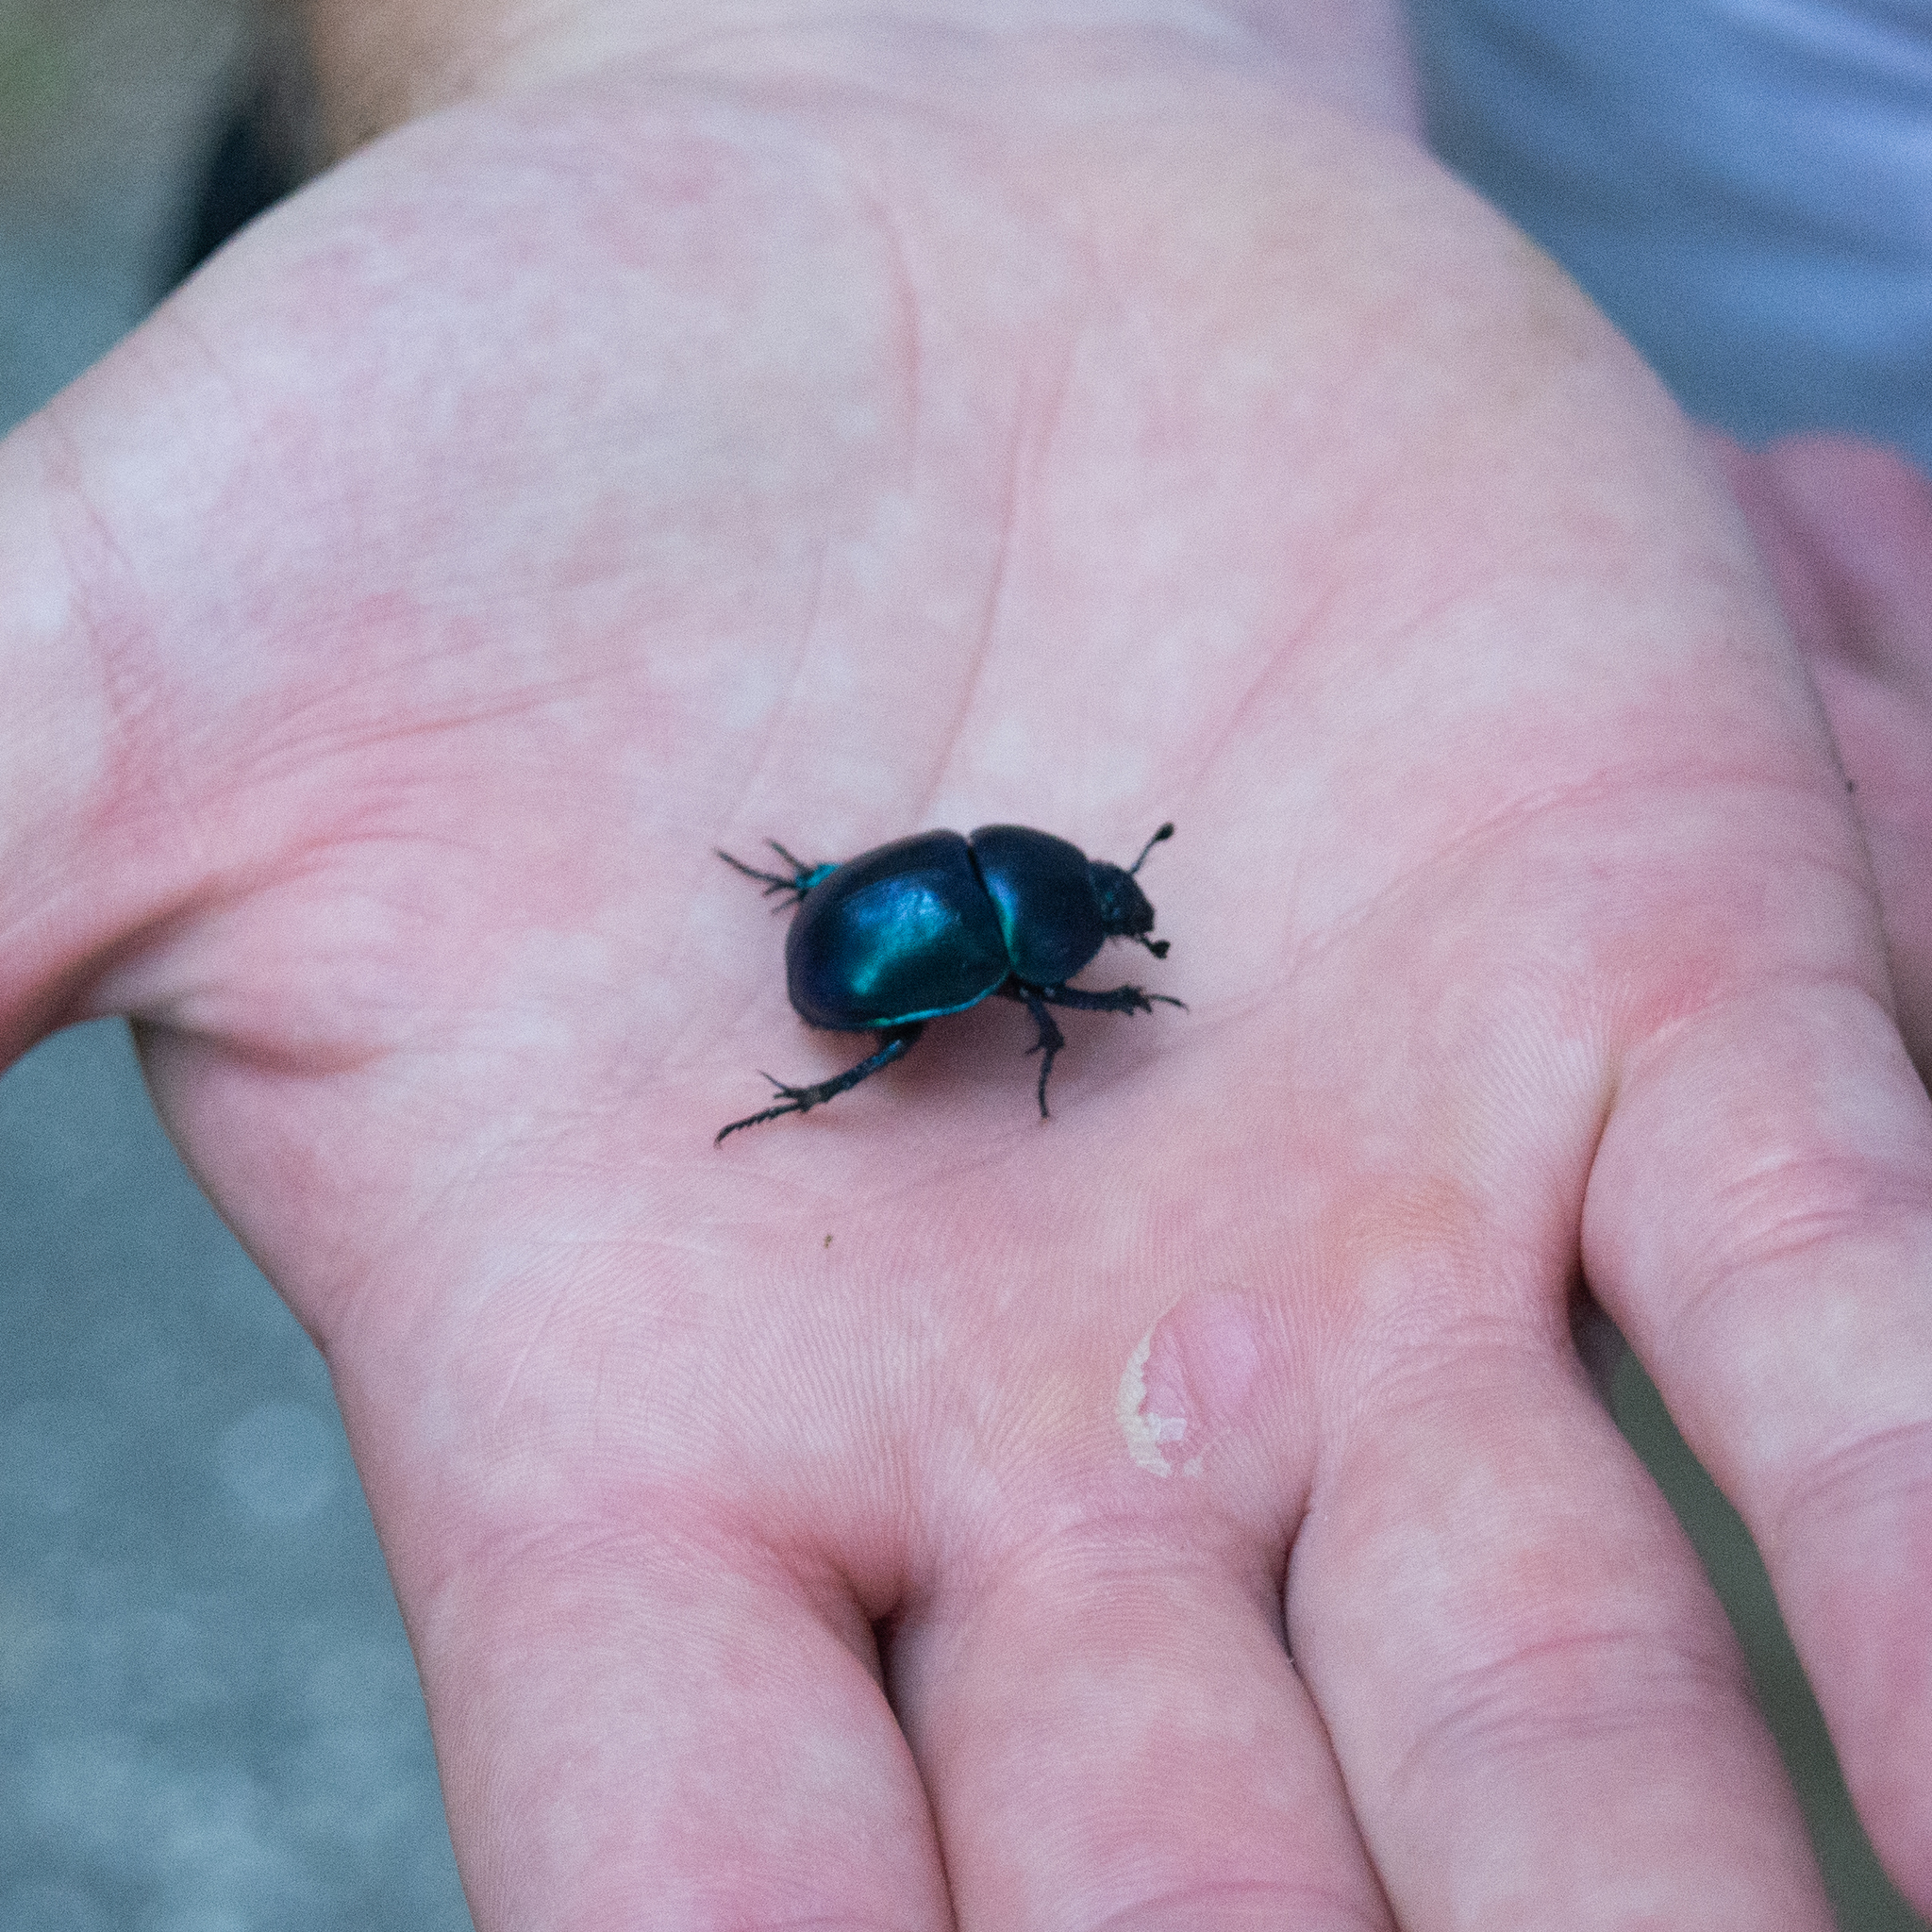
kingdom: Animalia
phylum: Arthropoda
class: Insecta
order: Coleoptera
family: Geotrupidae
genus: Trypocopris
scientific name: Trypocopris vernalis
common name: Spring dumbledor
